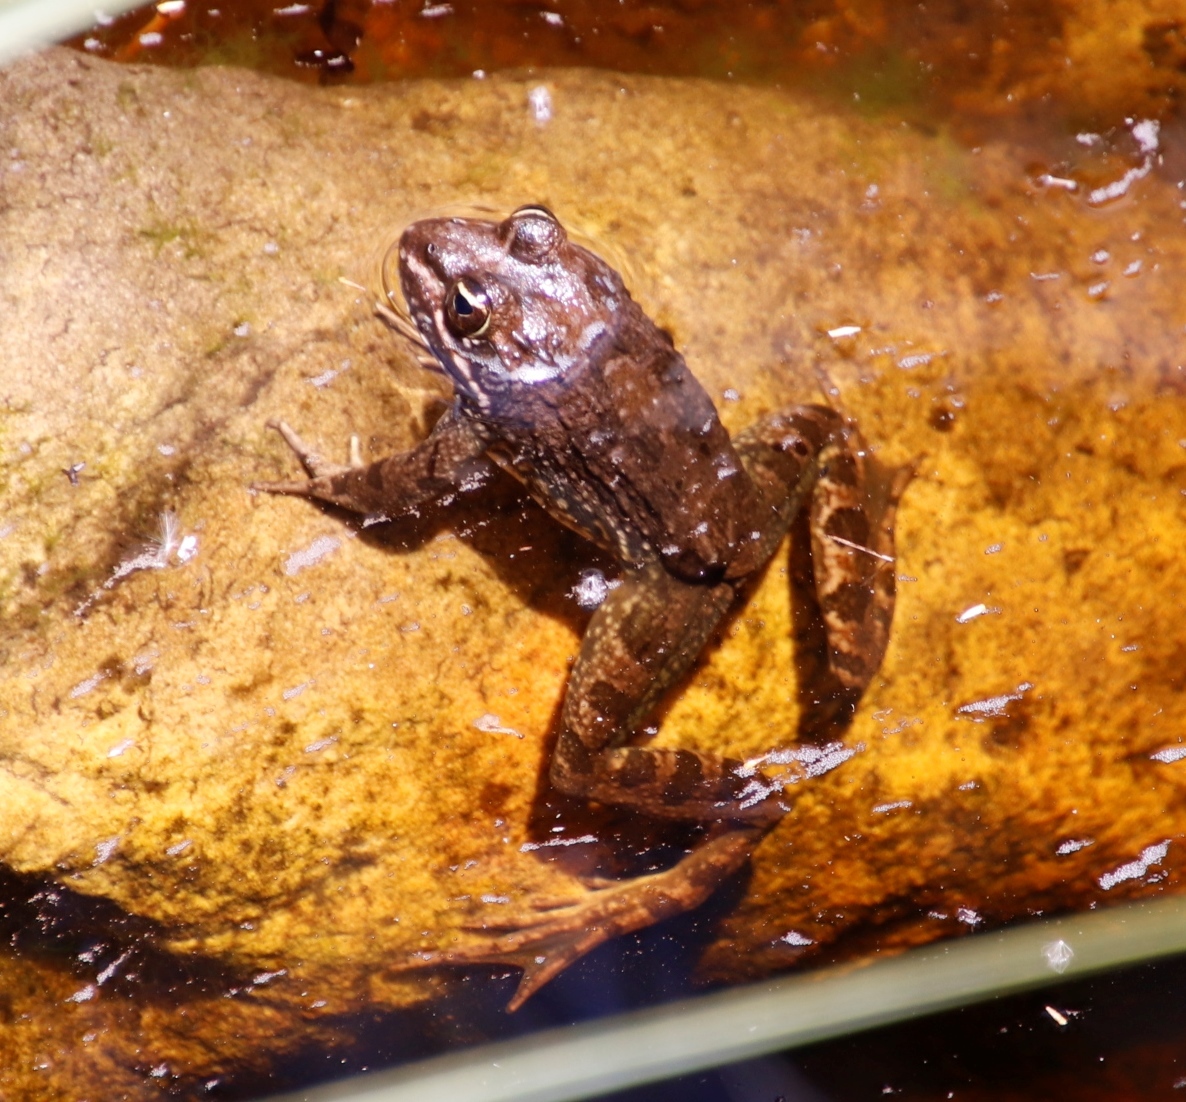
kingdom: Animalia
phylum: Chordata
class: Amphibia
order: Anura
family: Pyxicephalidae
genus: Amietia
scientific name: Amietia fuscigula
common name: Cape rana
